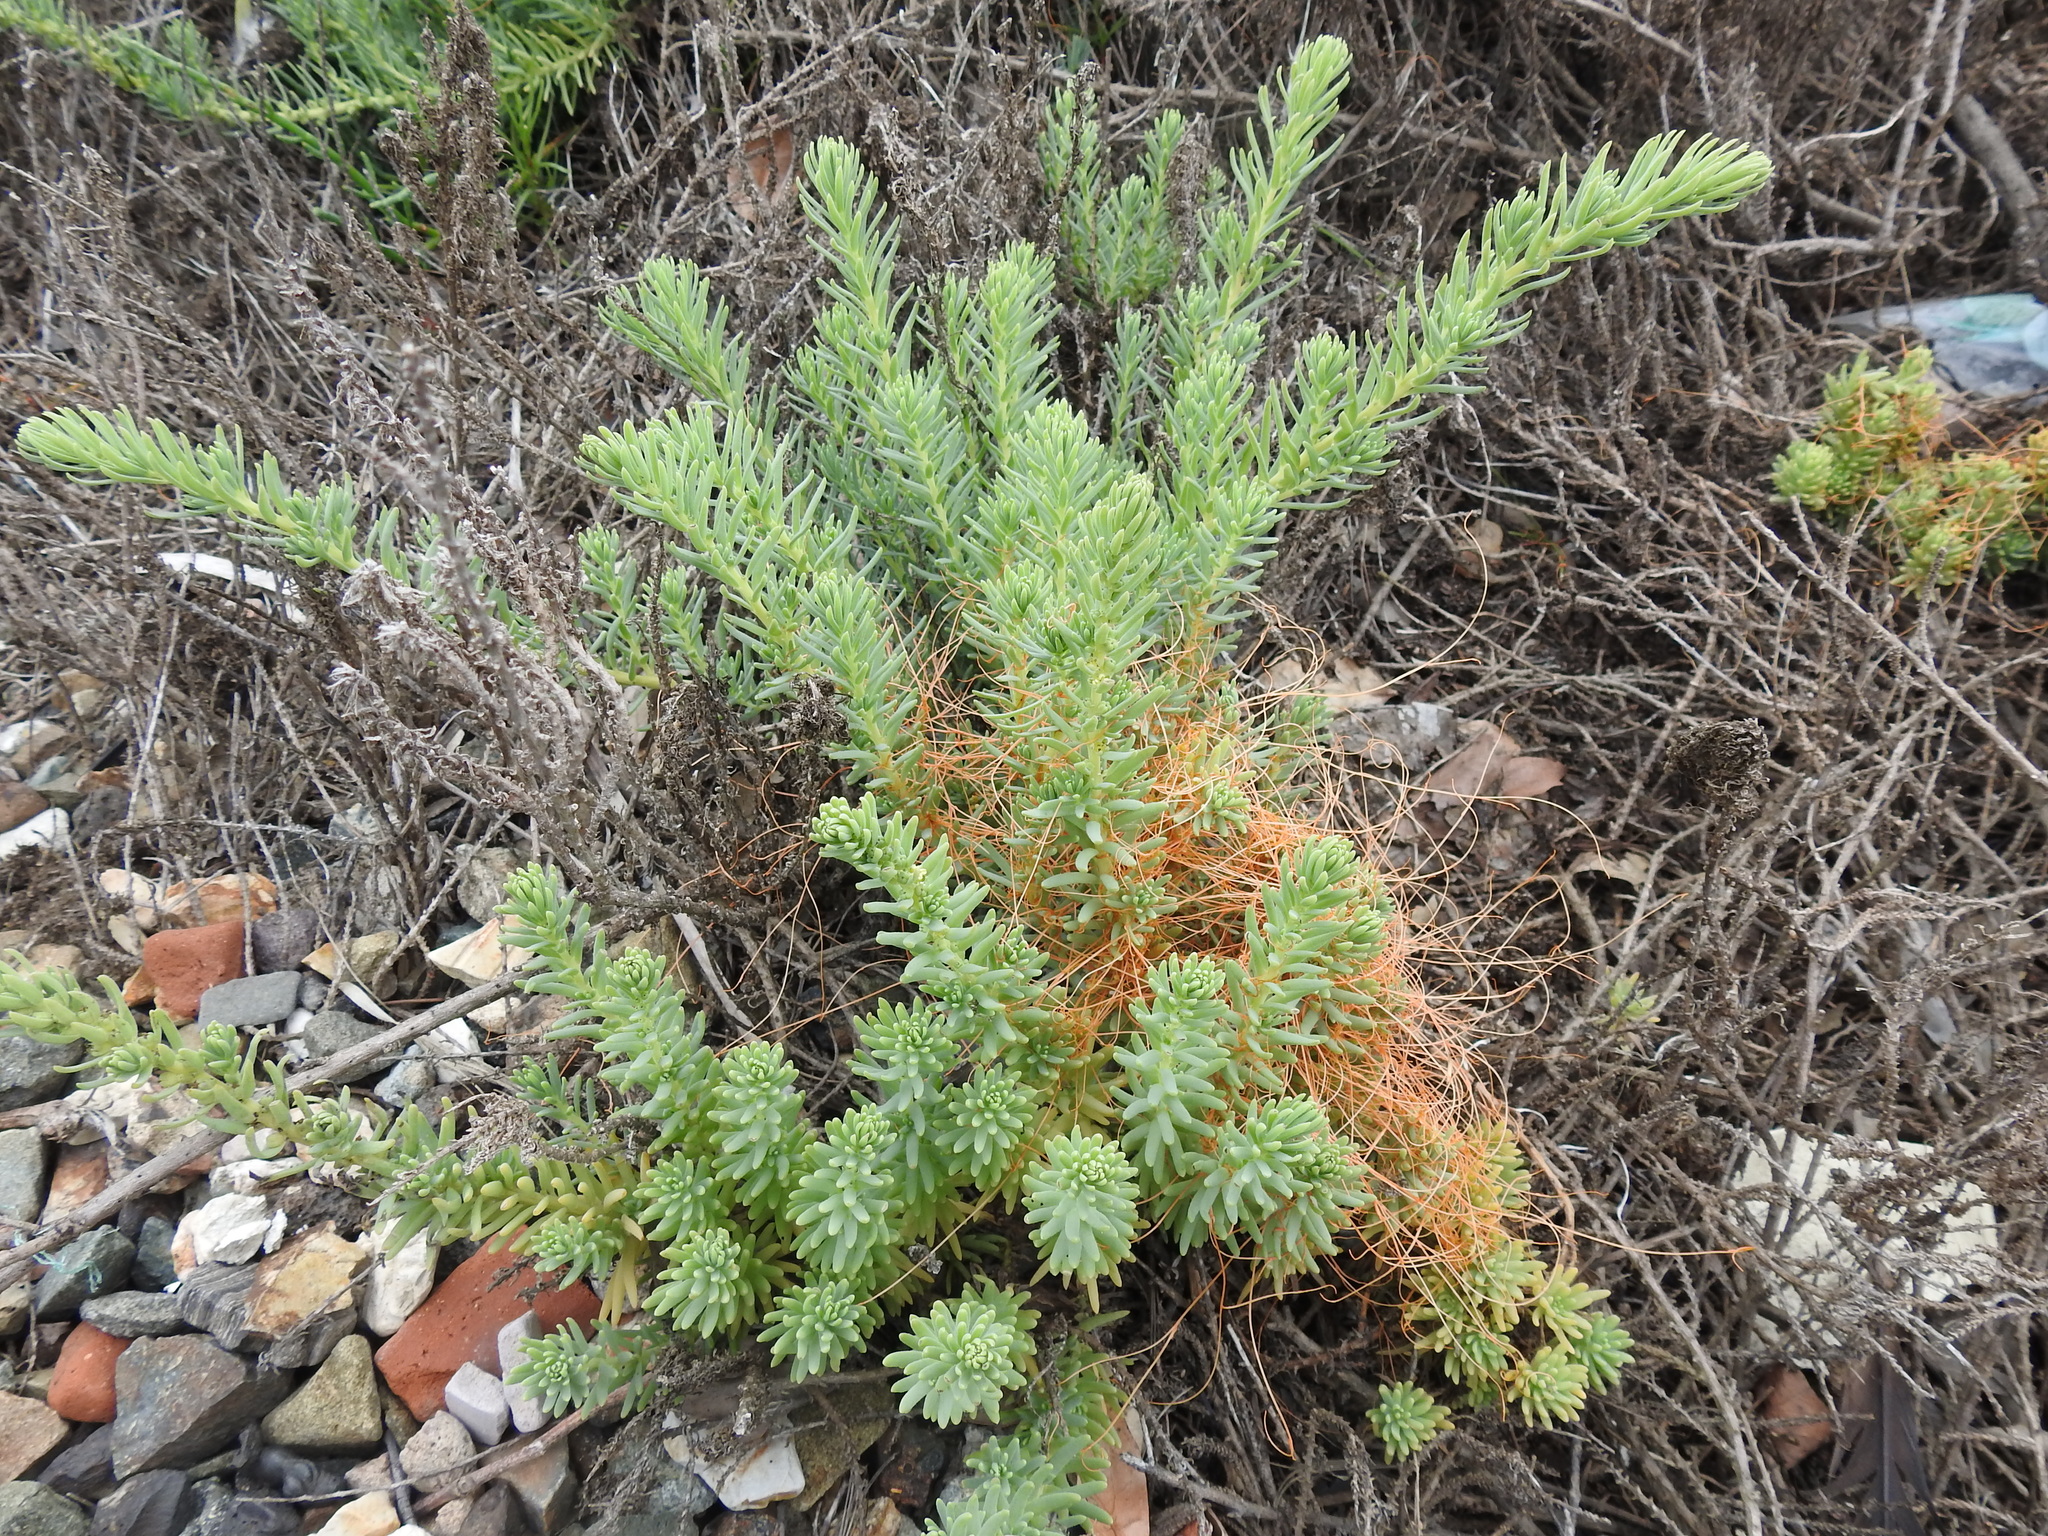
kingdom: Plantae
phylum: Tracheophyta
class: Magnoliopsida
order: Caryophyllales
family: Amaranthaceae
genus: Suaeda
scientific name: Suaeda californica
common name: California sea-blite
